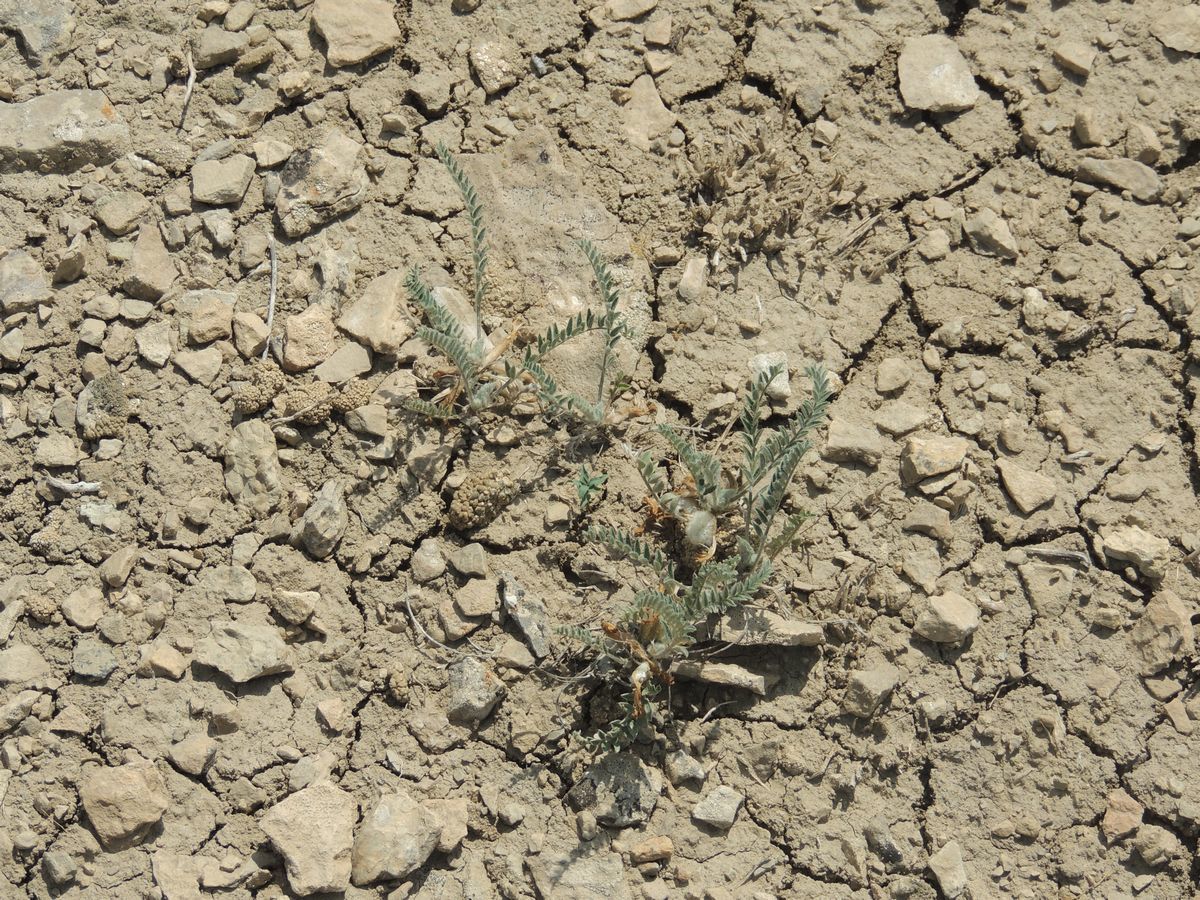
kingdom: Plantae
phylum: Tracheophyta
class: Magnoliopsida
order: Fabales
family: Fabaceae
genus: Astragalus
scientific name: Astragalus testiculatus
